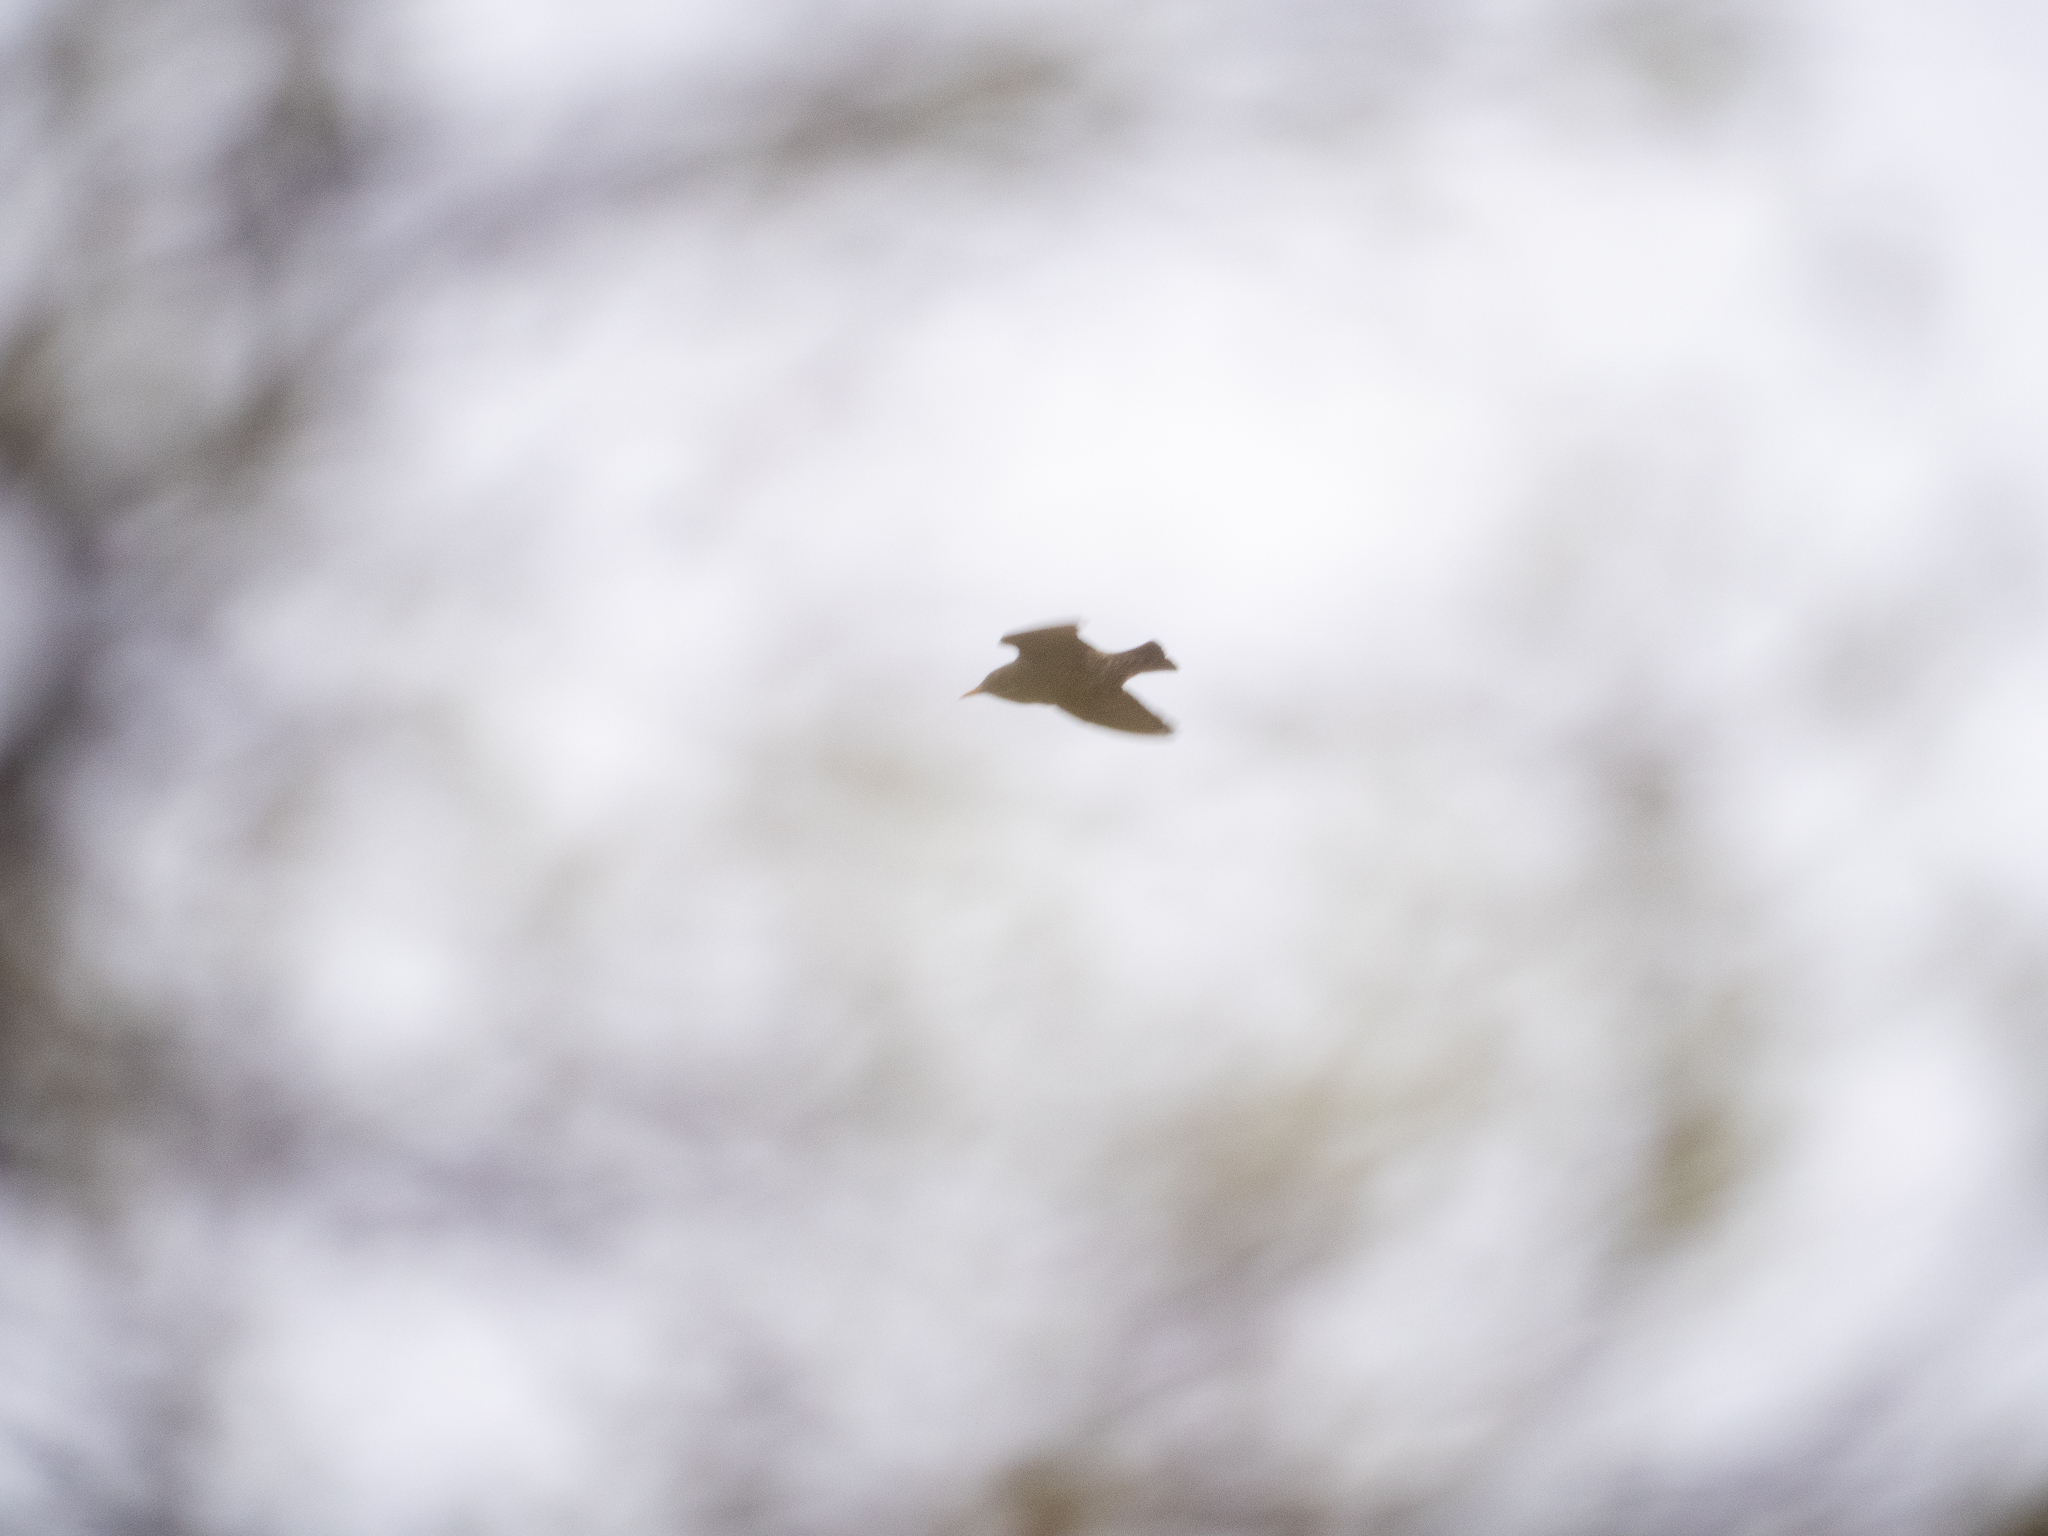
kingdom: Animalia
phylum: Chordata
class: Aves
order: Passeriformes
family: Sturnidae
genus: Sturnus
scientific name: Sturnus vulgaris
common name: Common starling
